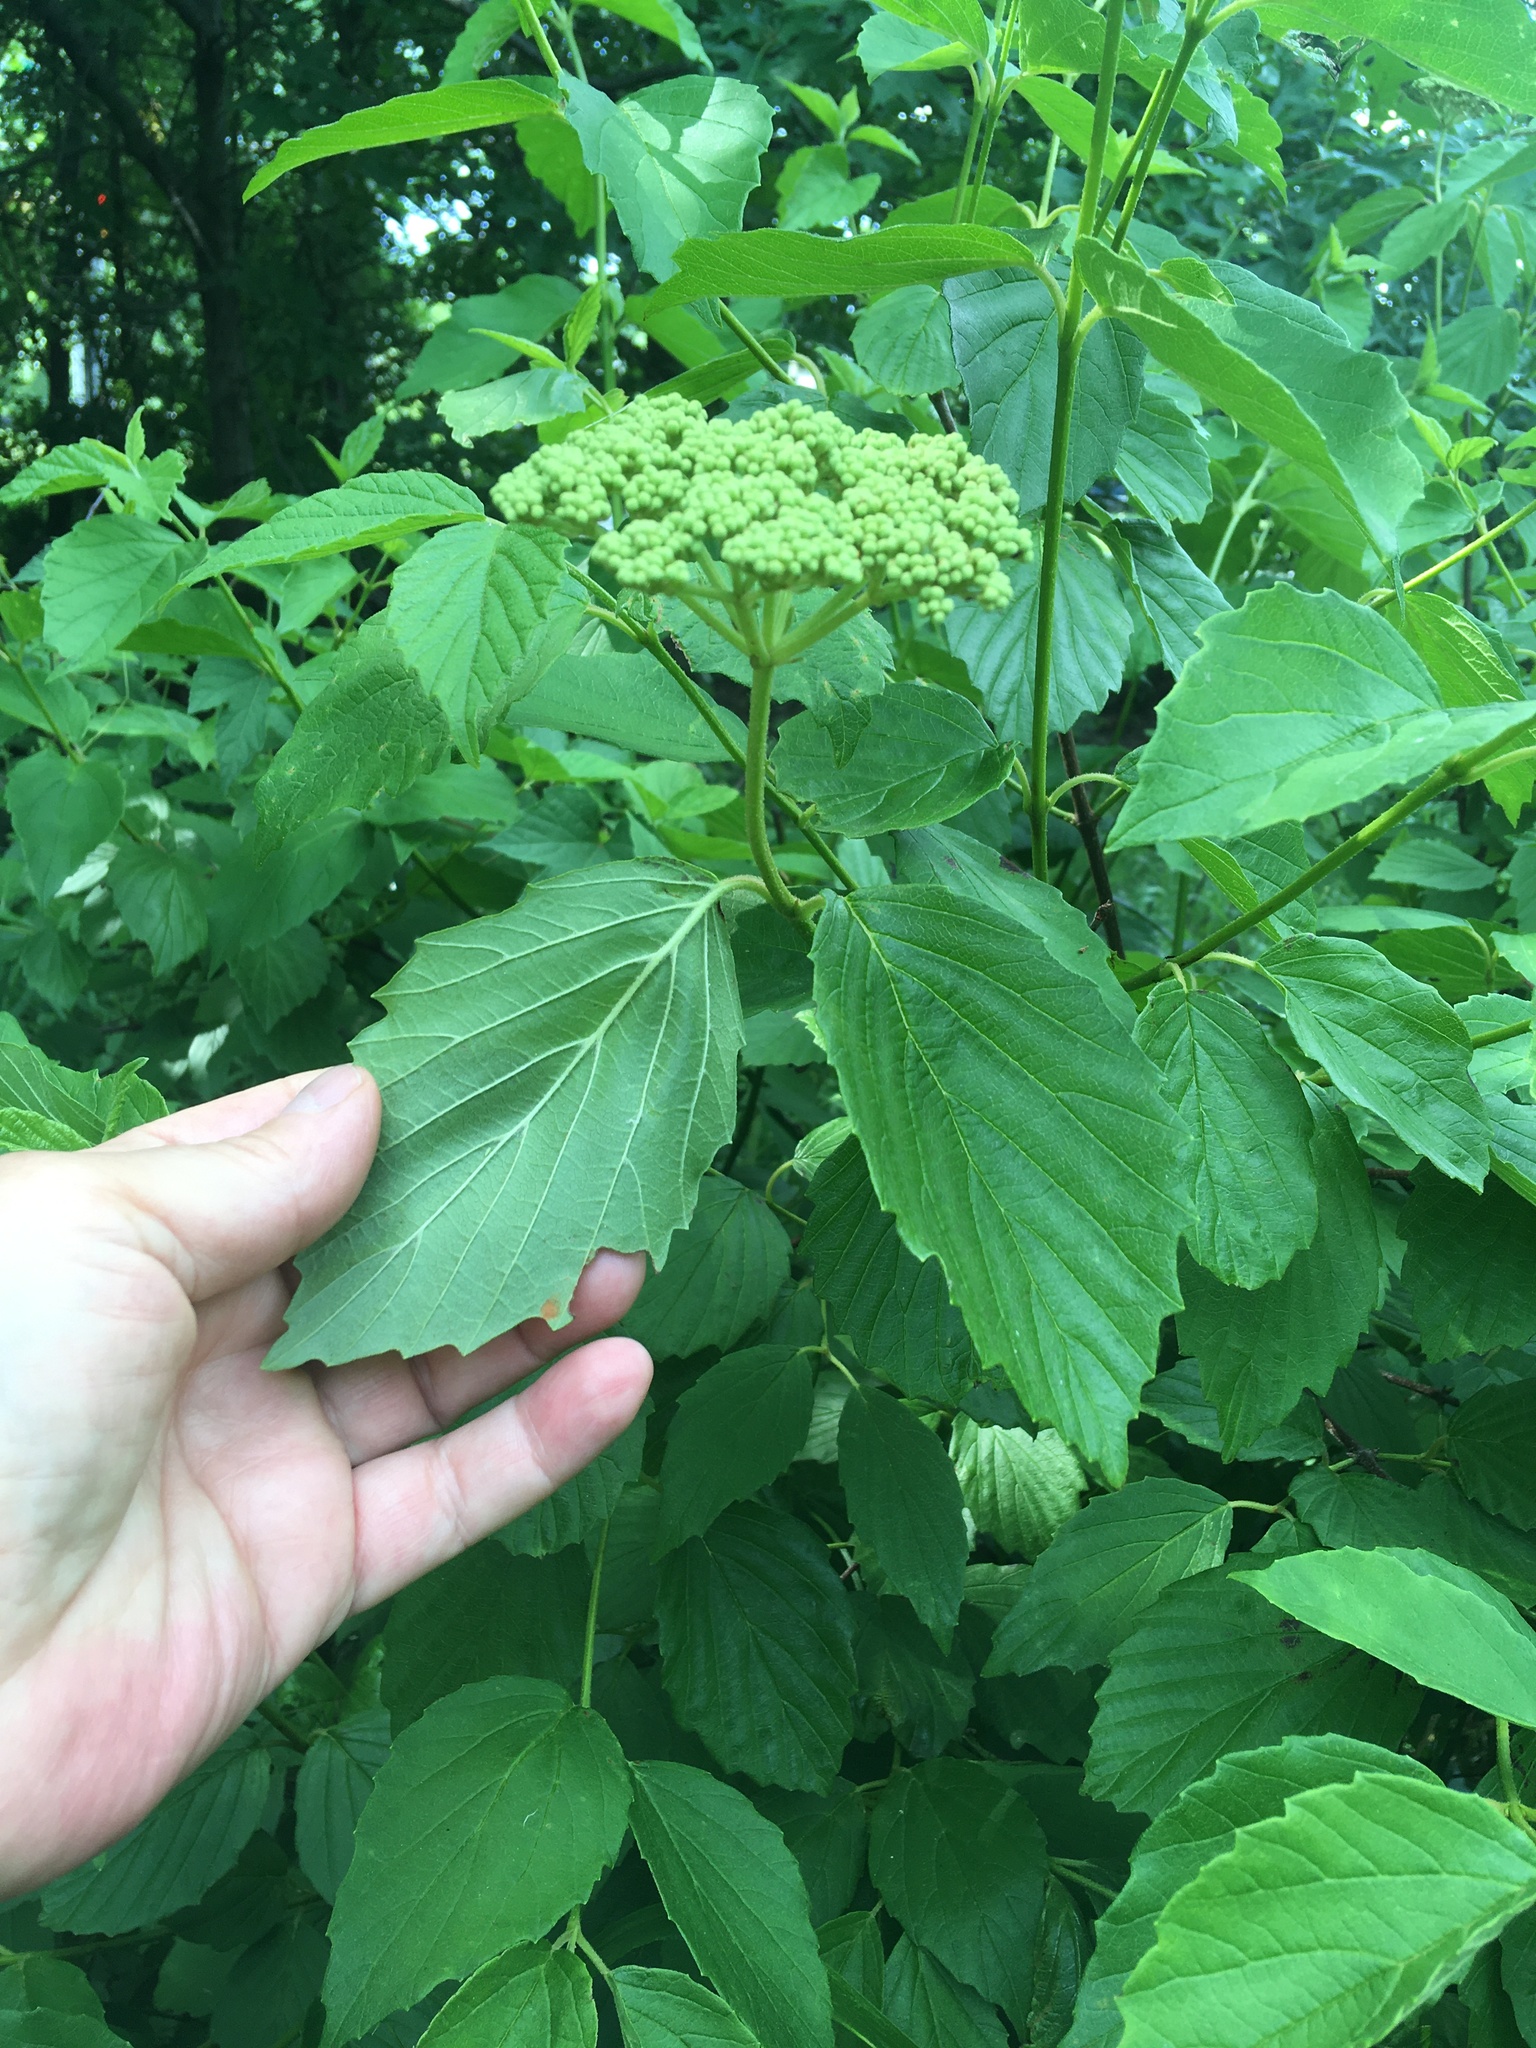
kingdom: Plantae
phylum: Tracheophyta
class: Magnoliopsida
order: Dipsacales
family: Viburnaceae
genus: Viburnum
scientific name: Viburnum recognitum
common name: Northern arrow-wood
